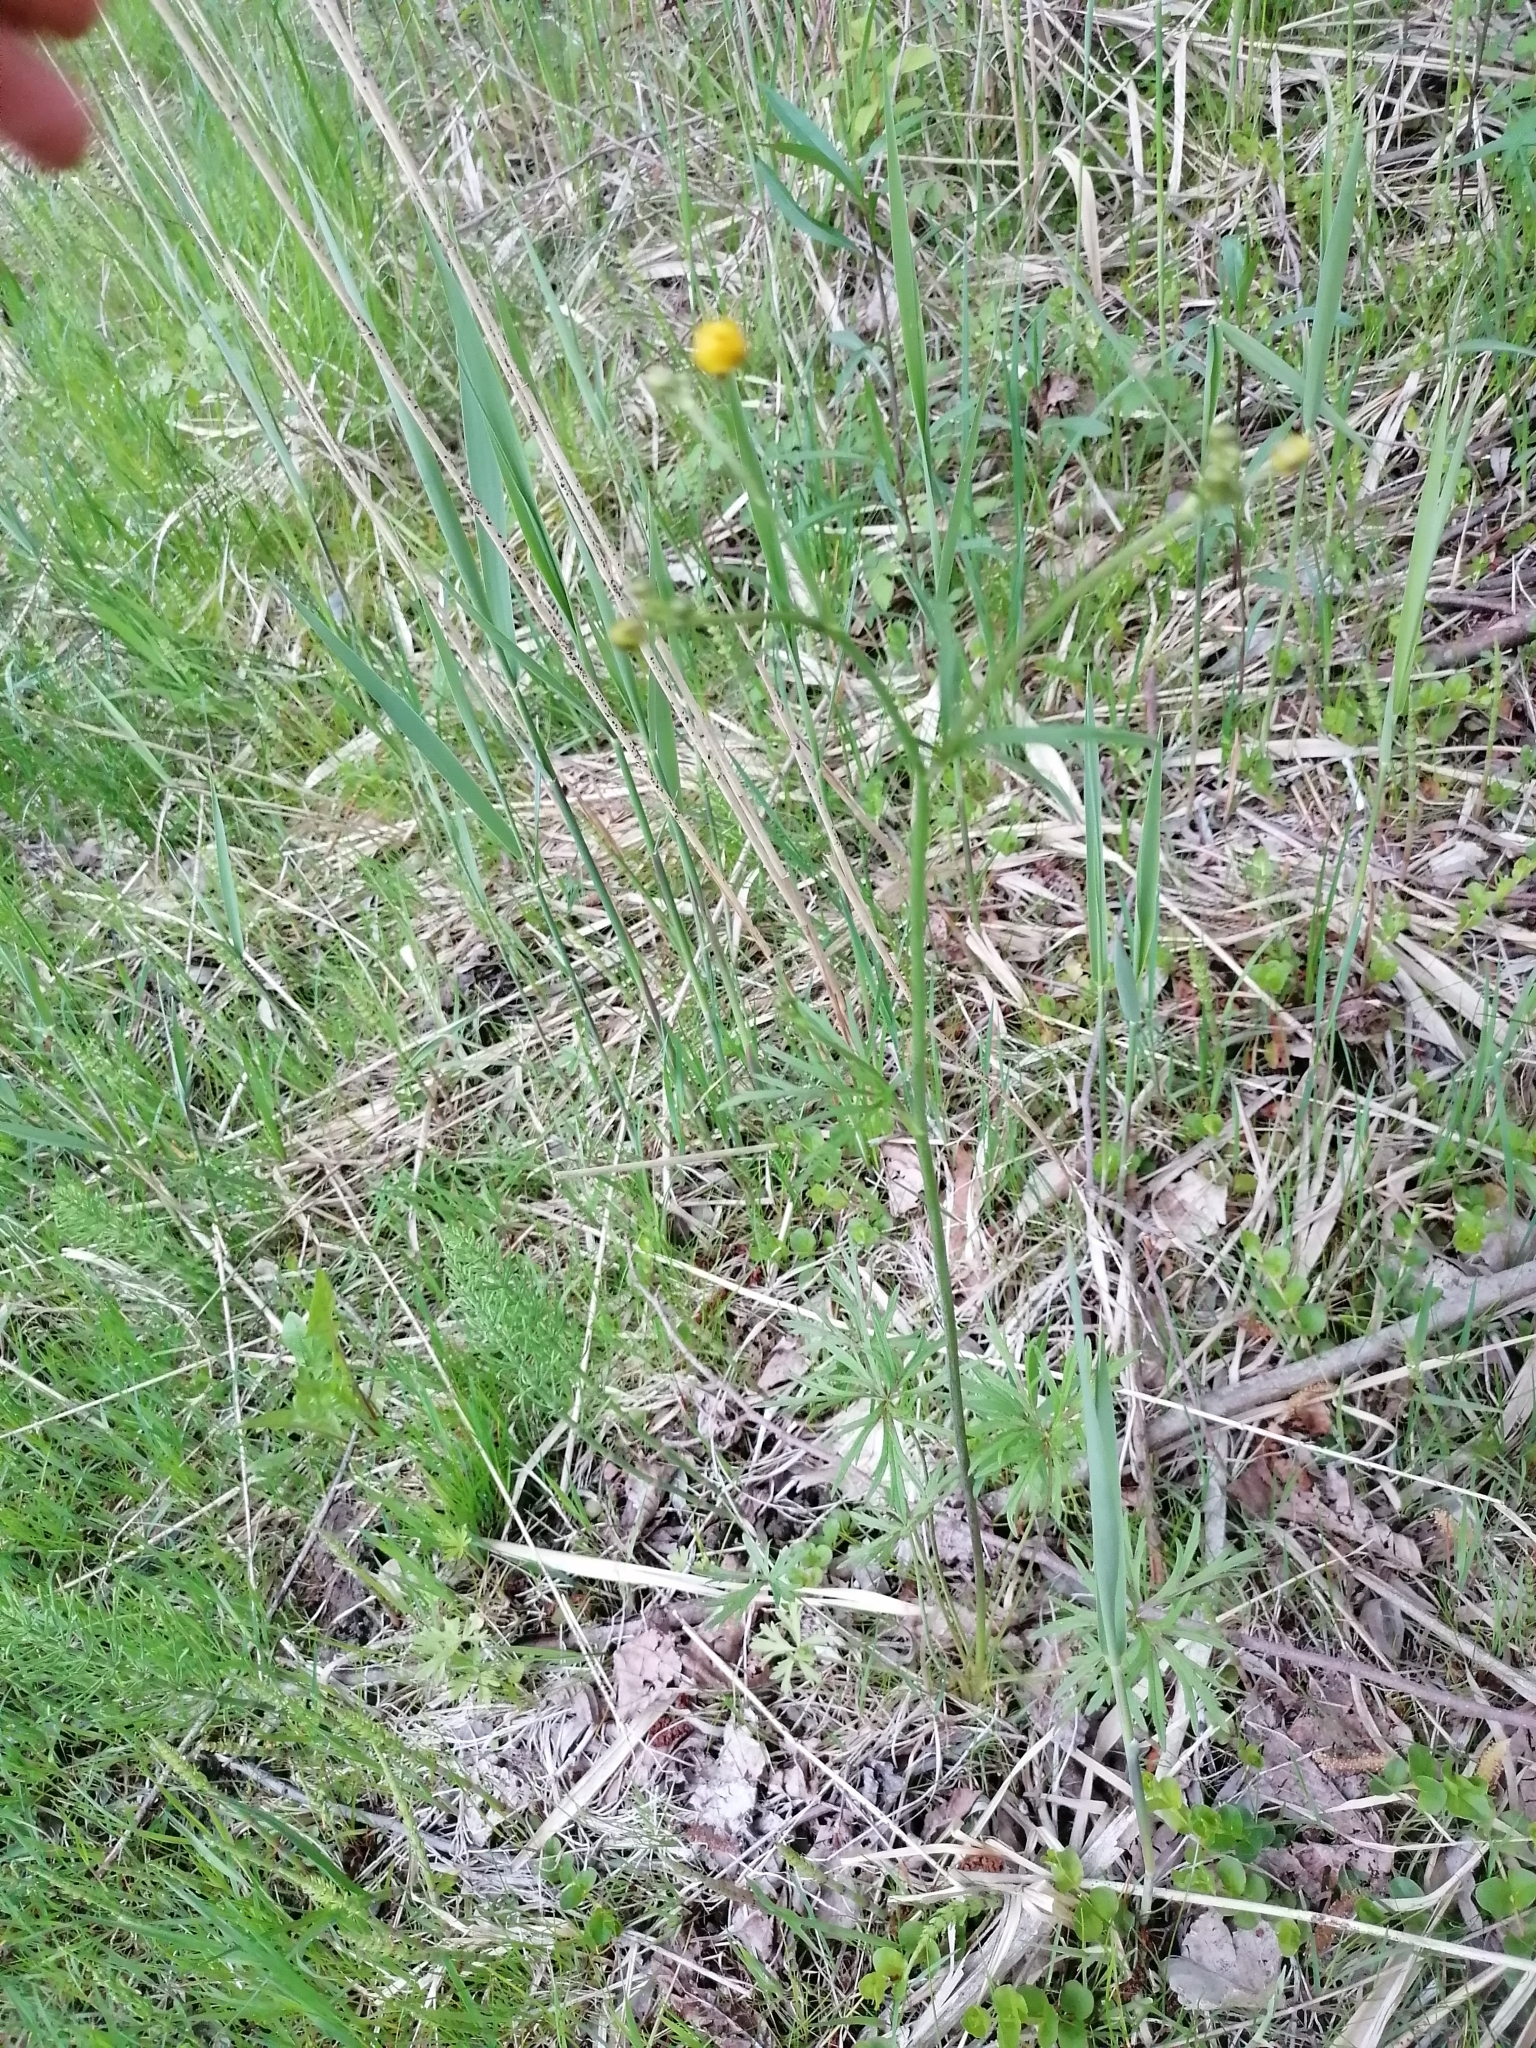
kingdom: Plantae
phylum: Tracheophyta
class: Magnoliopsida
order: Ranunculales
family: Ranunculaceae
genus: Ranunculus
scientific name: Ranunculus acris
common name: Meadow buttercup
